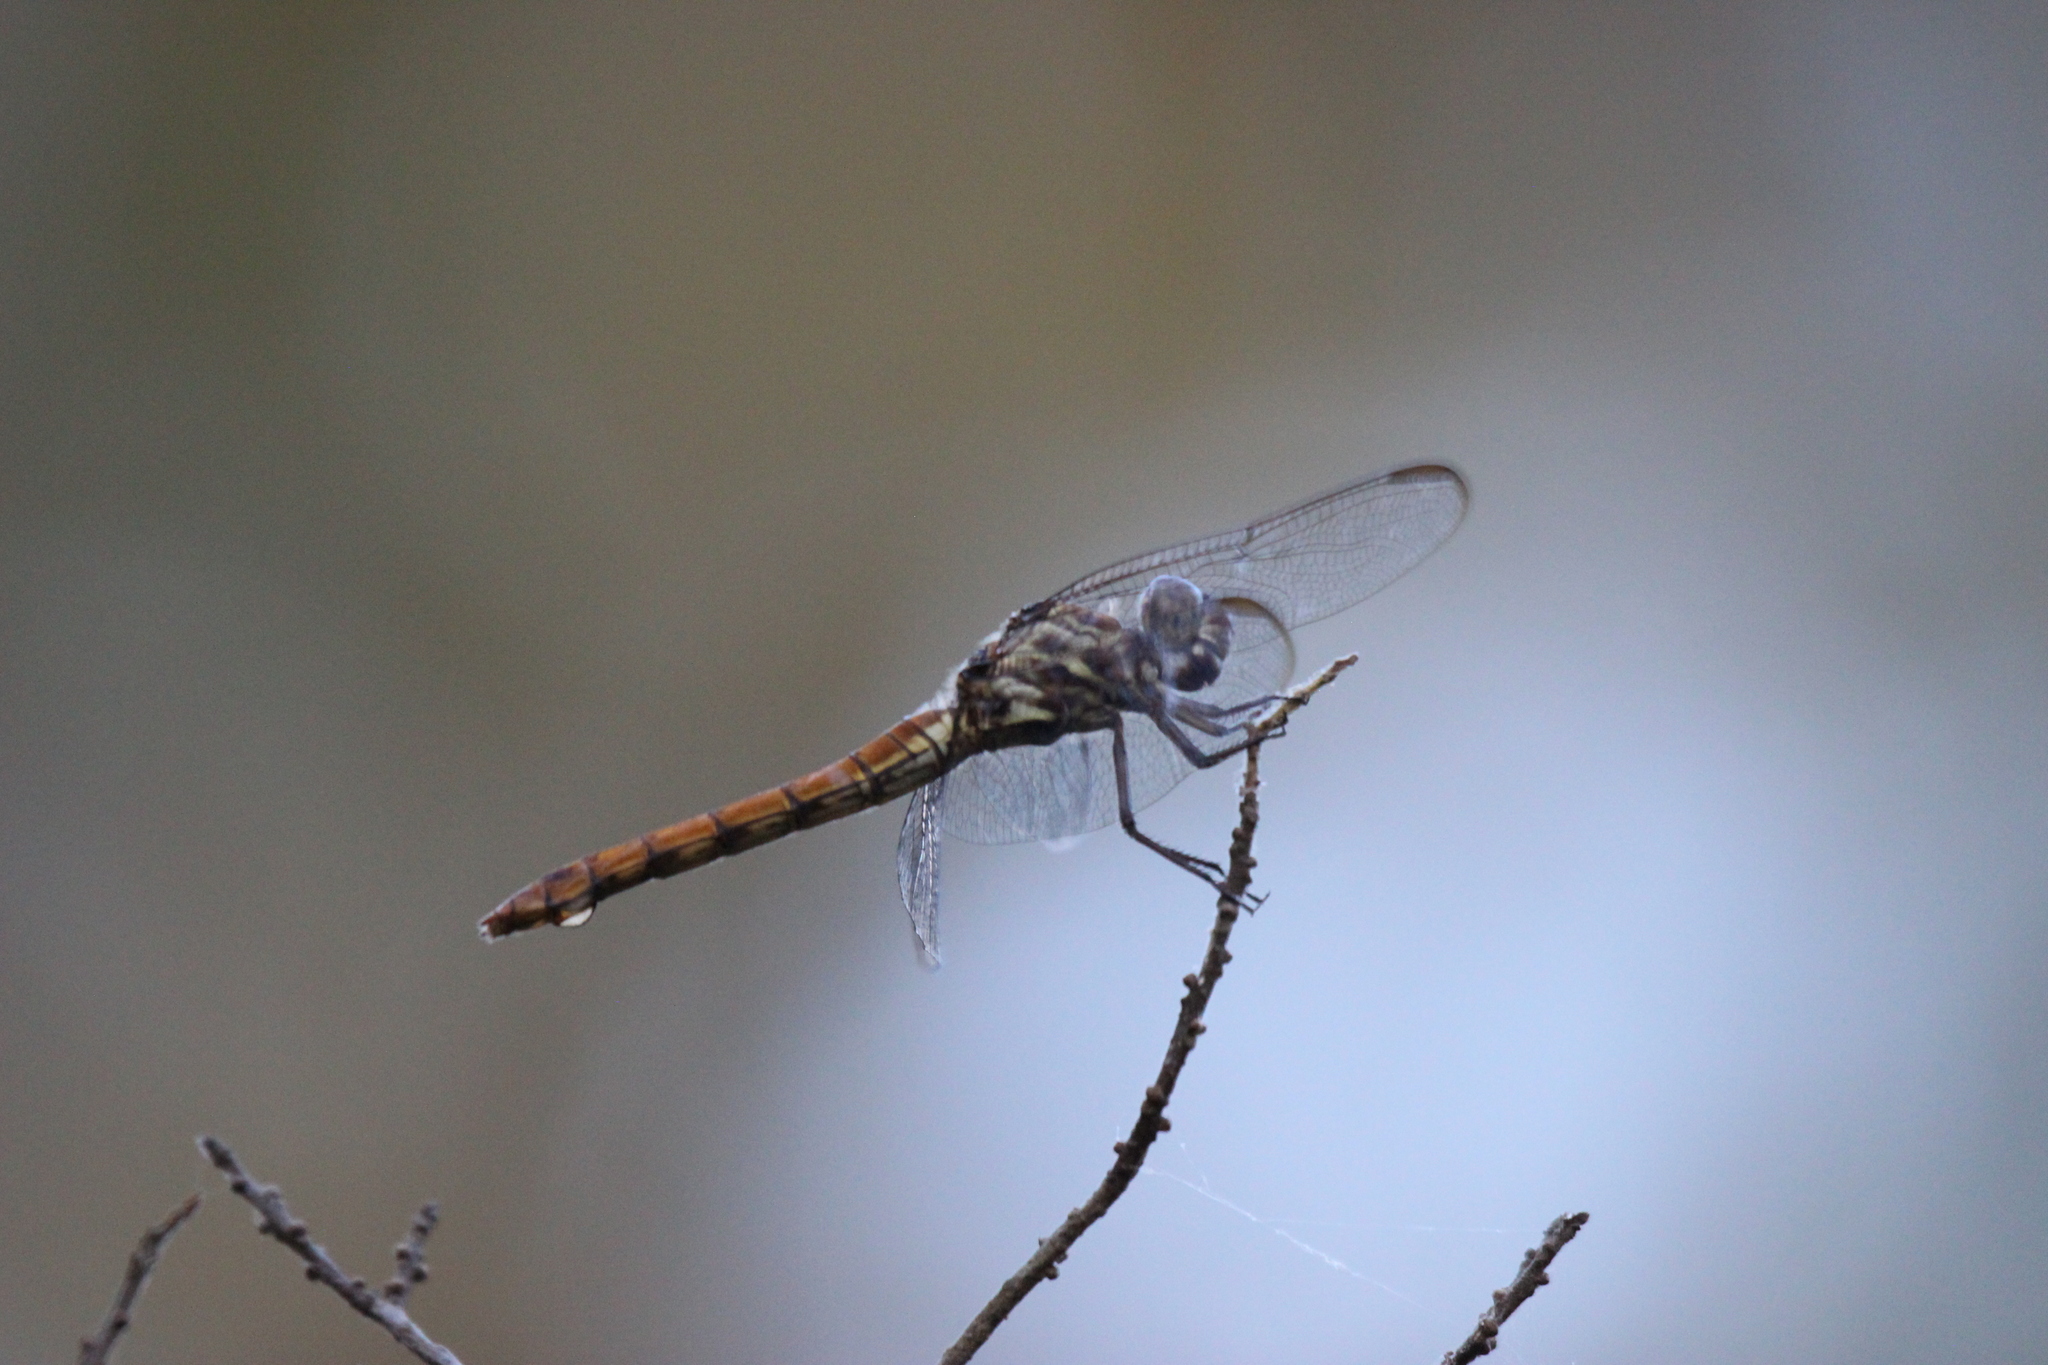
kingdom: Animalia
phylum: Arthropoda
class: Insecta
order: Odonata
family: Libellulidae
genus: Orthemis
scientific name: Orthemis ferruginea
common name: Roseate skimmer
